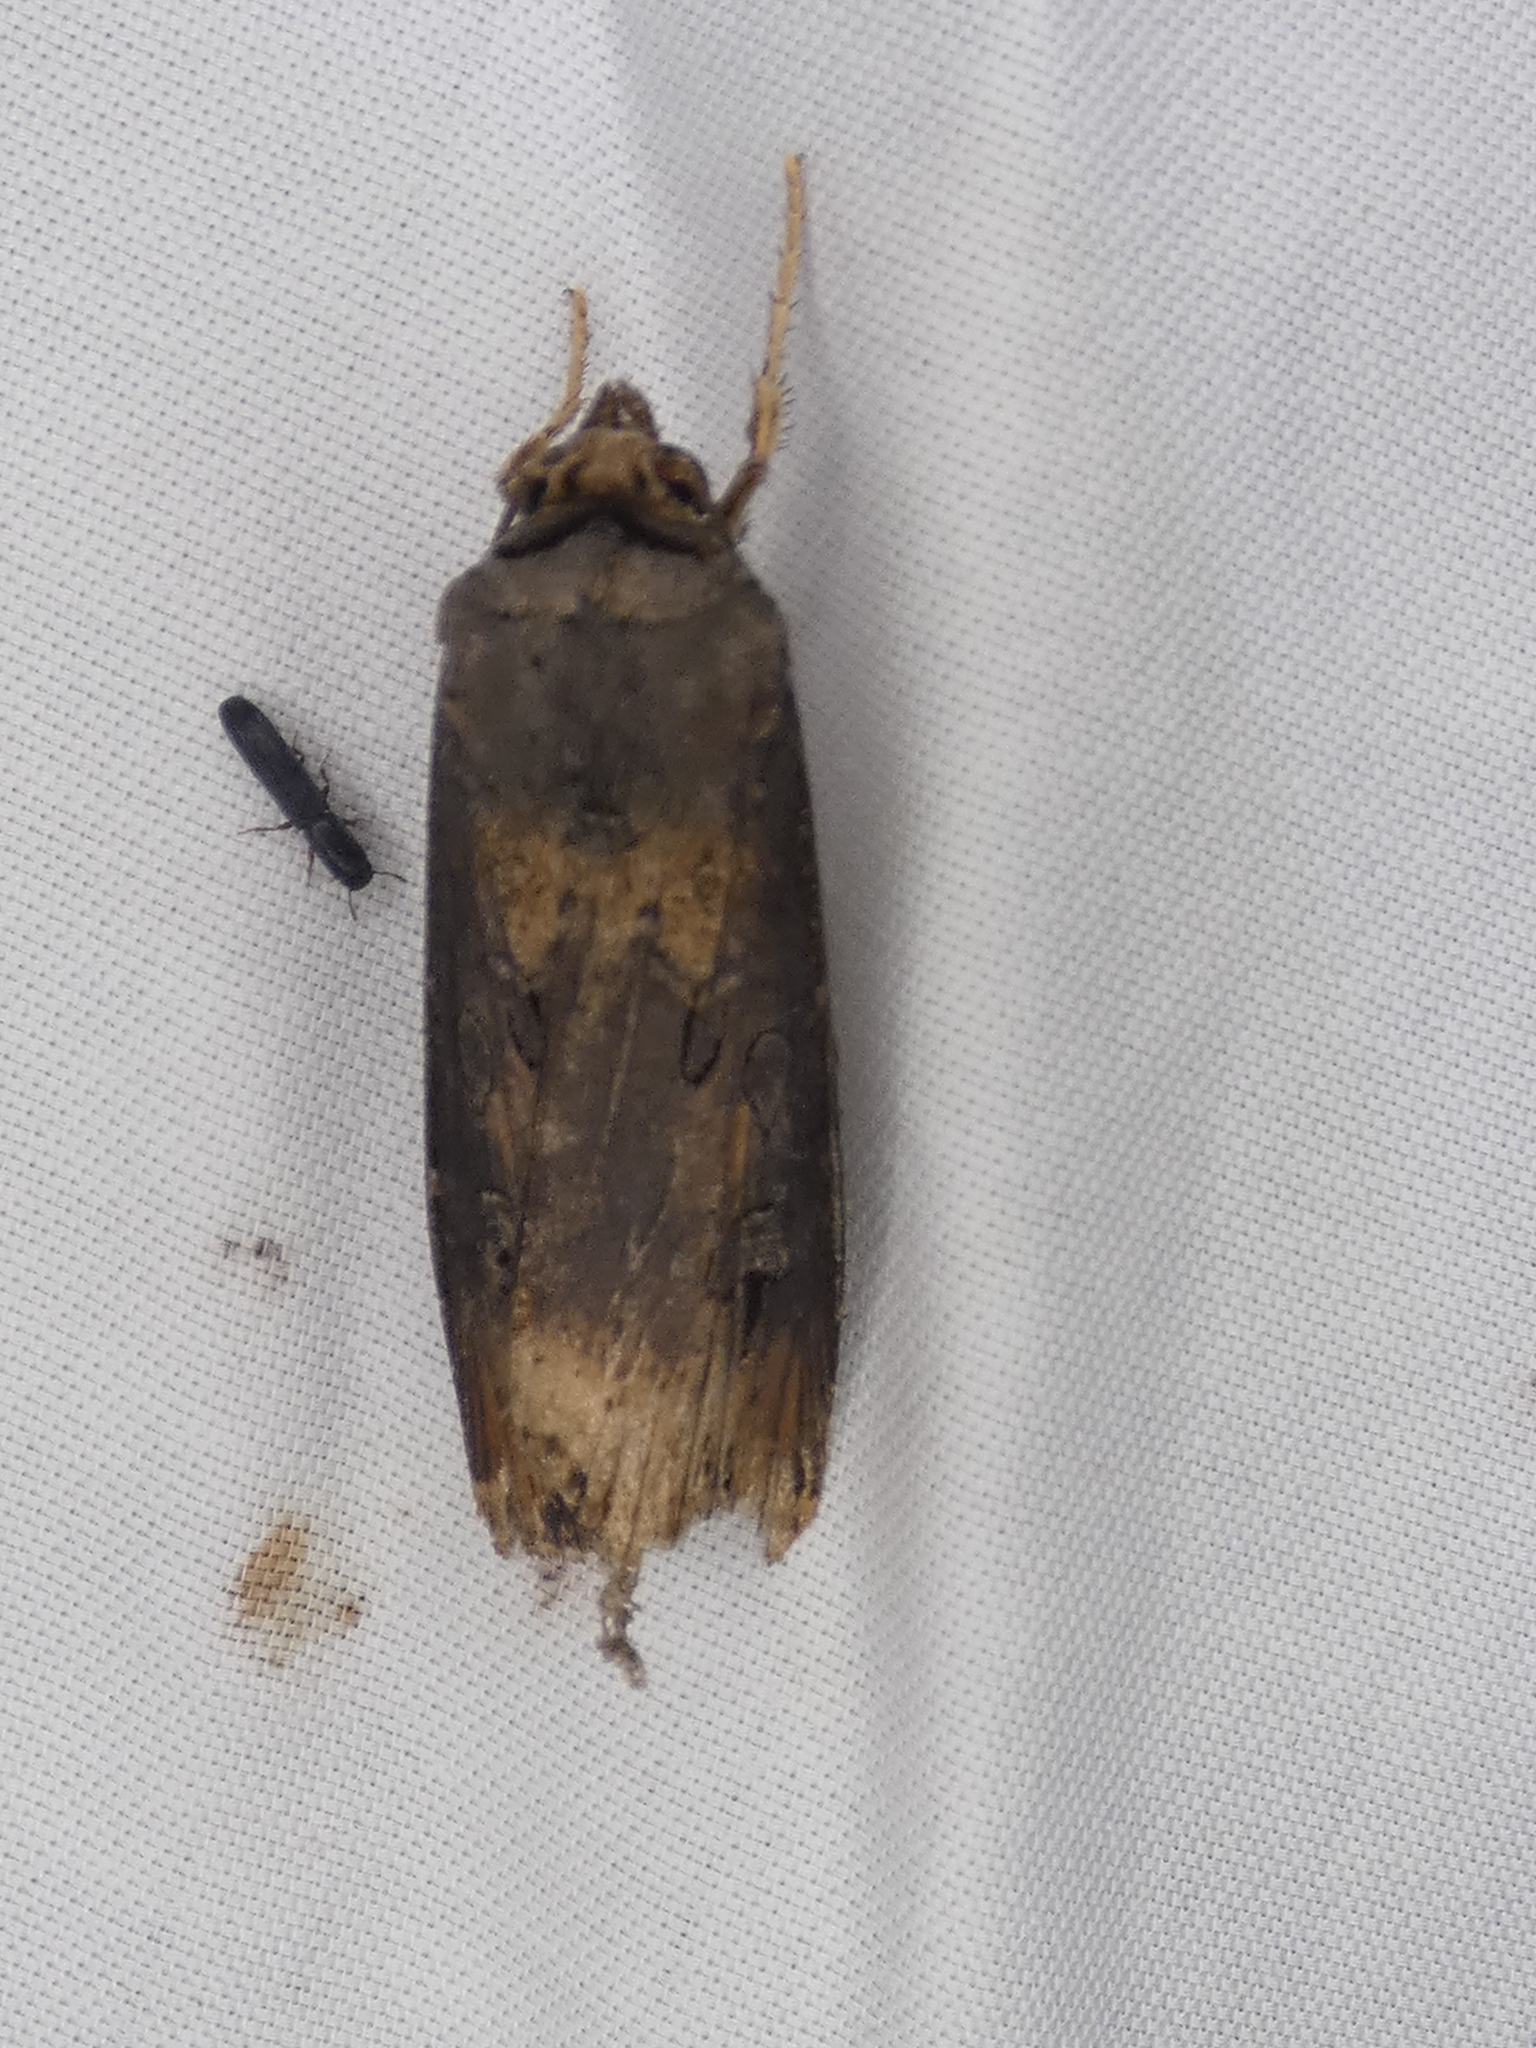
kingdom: Animalia
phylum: Arthropoda
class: Insecta
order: Lepidoptera
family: Noctuidae
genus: Agrotis
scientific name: Agrotis ipsilon
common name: Dark sword-grass
